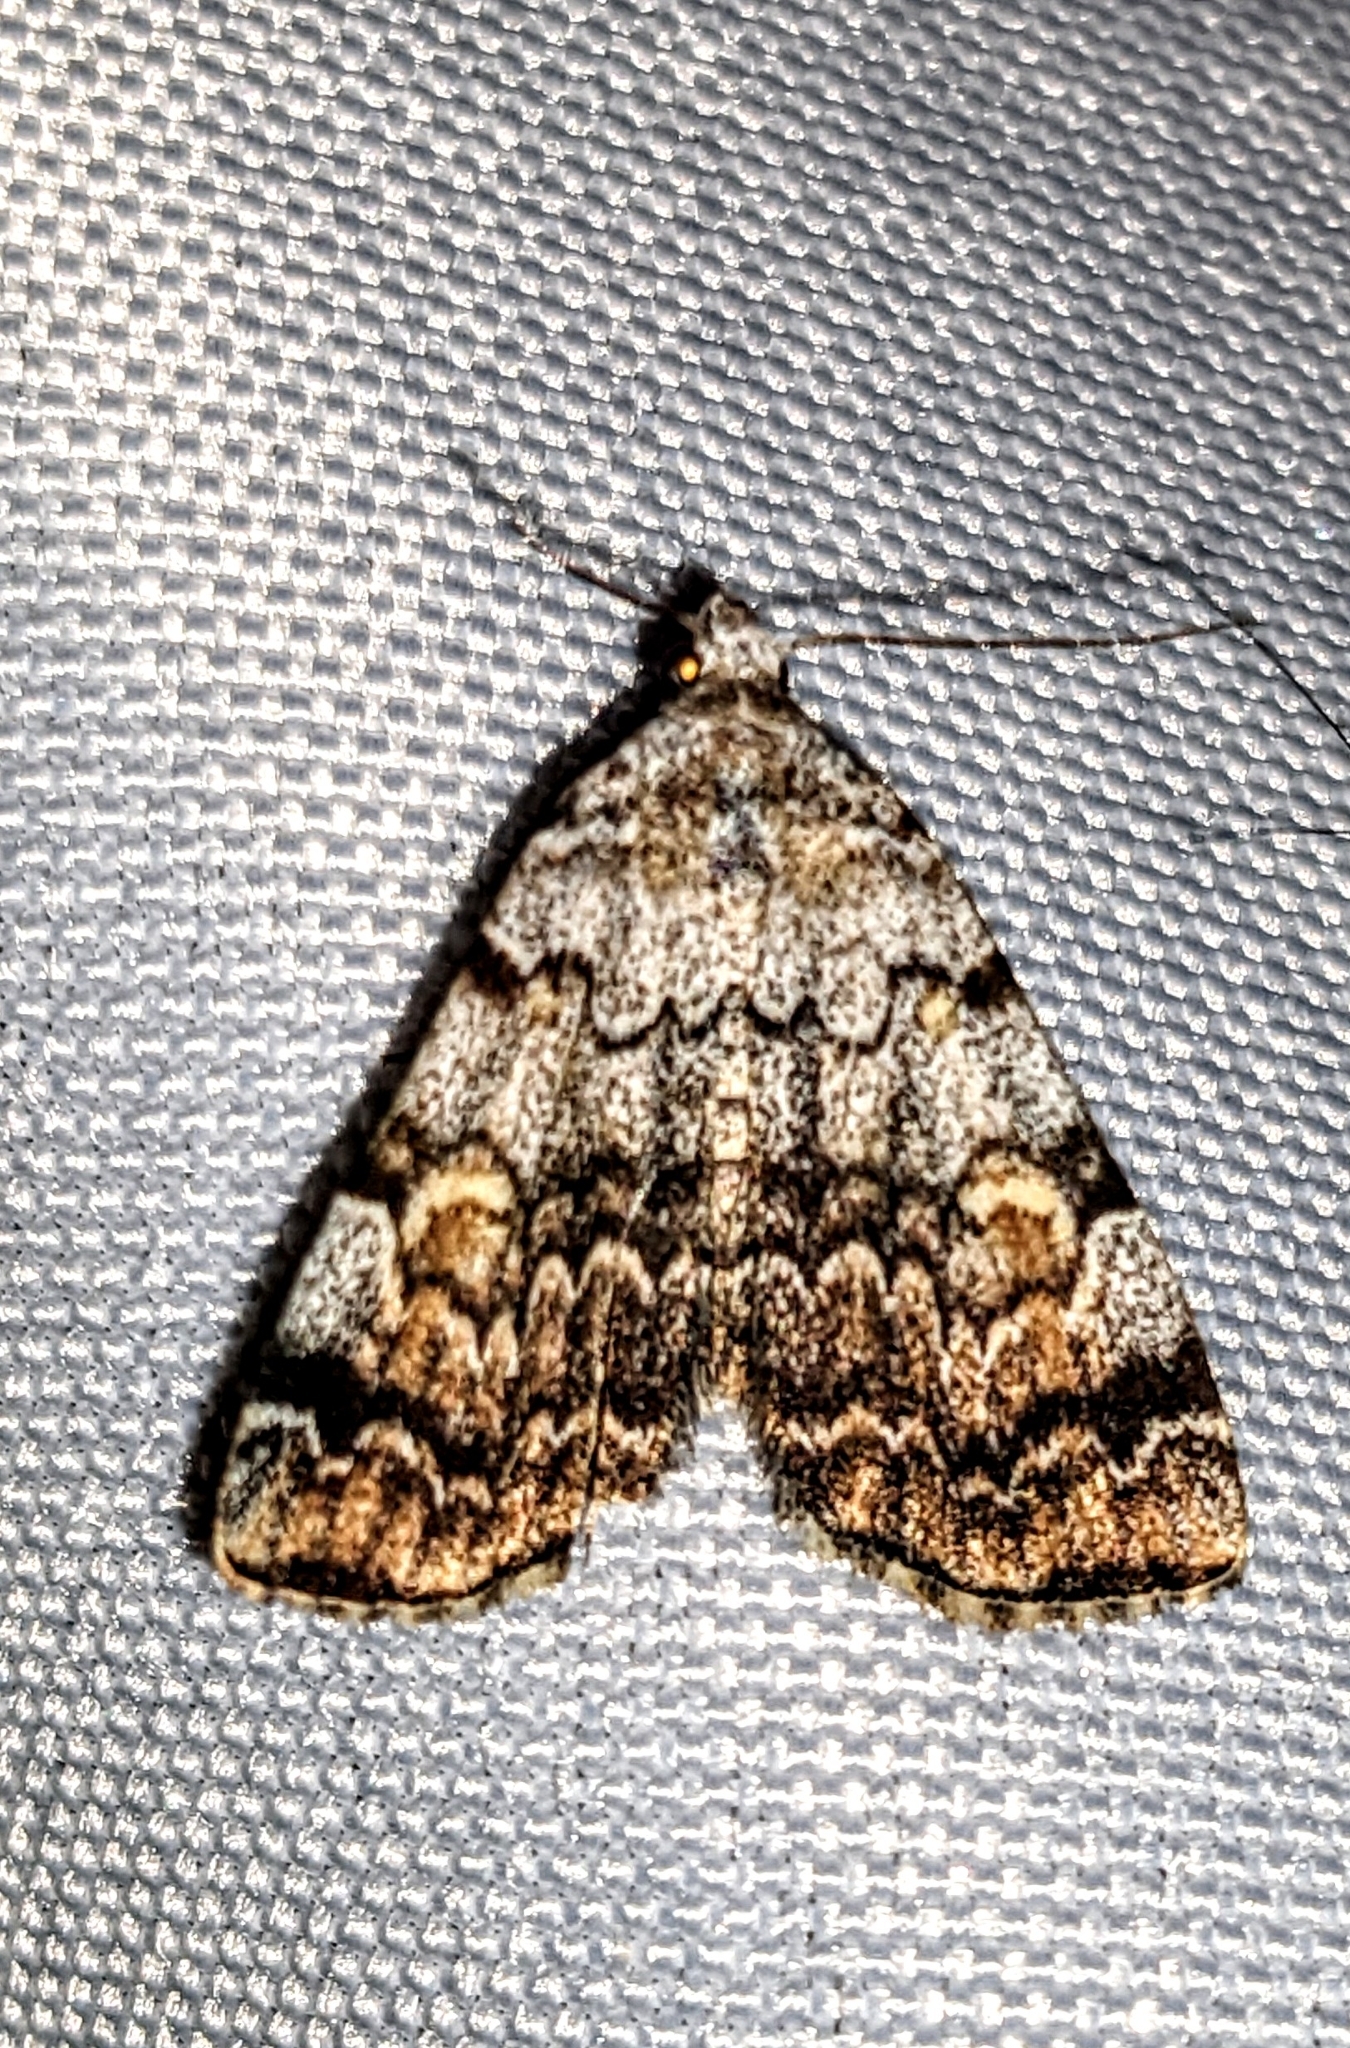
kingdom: Animalia
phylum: Arthropoda
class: Insecta
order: Lepidoptera
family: Erebidae
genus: Idia
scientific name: Idia americalis
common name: American idia moth
